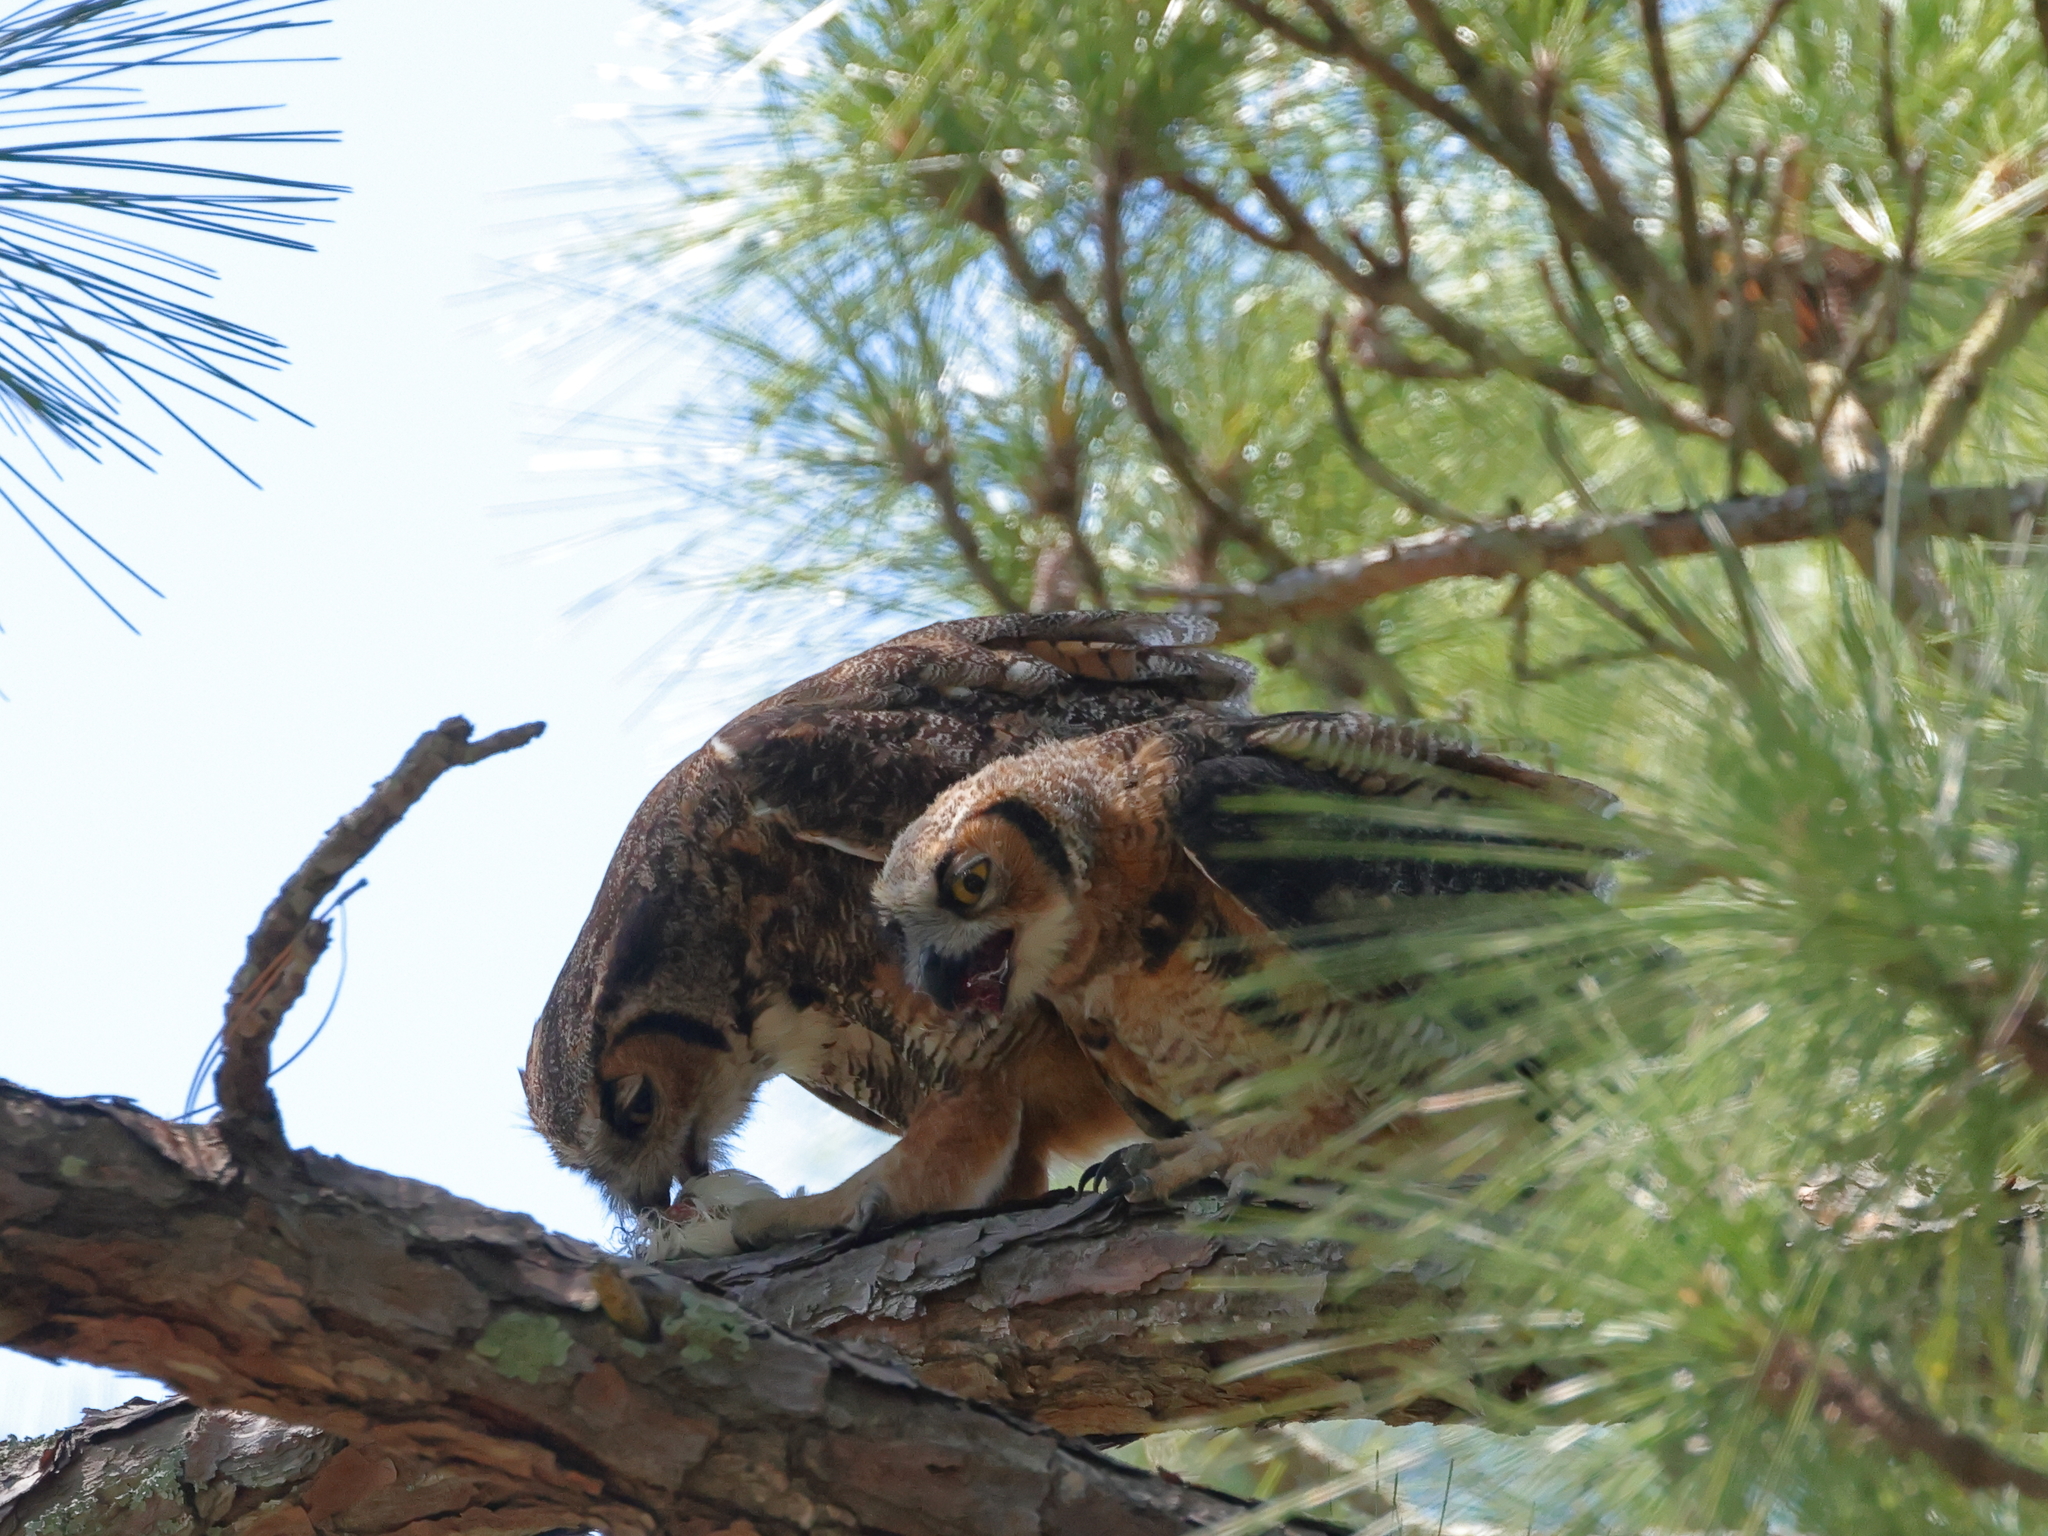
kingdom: Animalia
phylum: Chordata
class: Aves
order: Strigiformes
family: Strigidae
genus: Bubo
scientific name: Bubo virginianus
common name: Great horned owl
